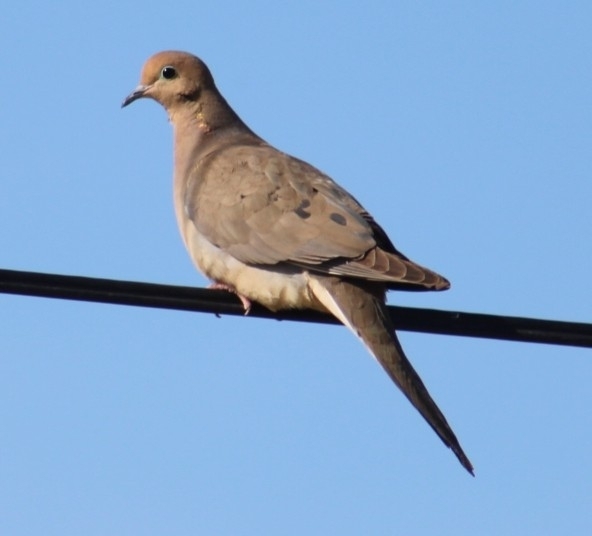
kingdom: Animalia
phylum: Chordata
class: Aves
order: Columbiformes
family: Columbidae
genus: Zenaida
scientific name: Zenaida macroura
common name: Mourning dove
